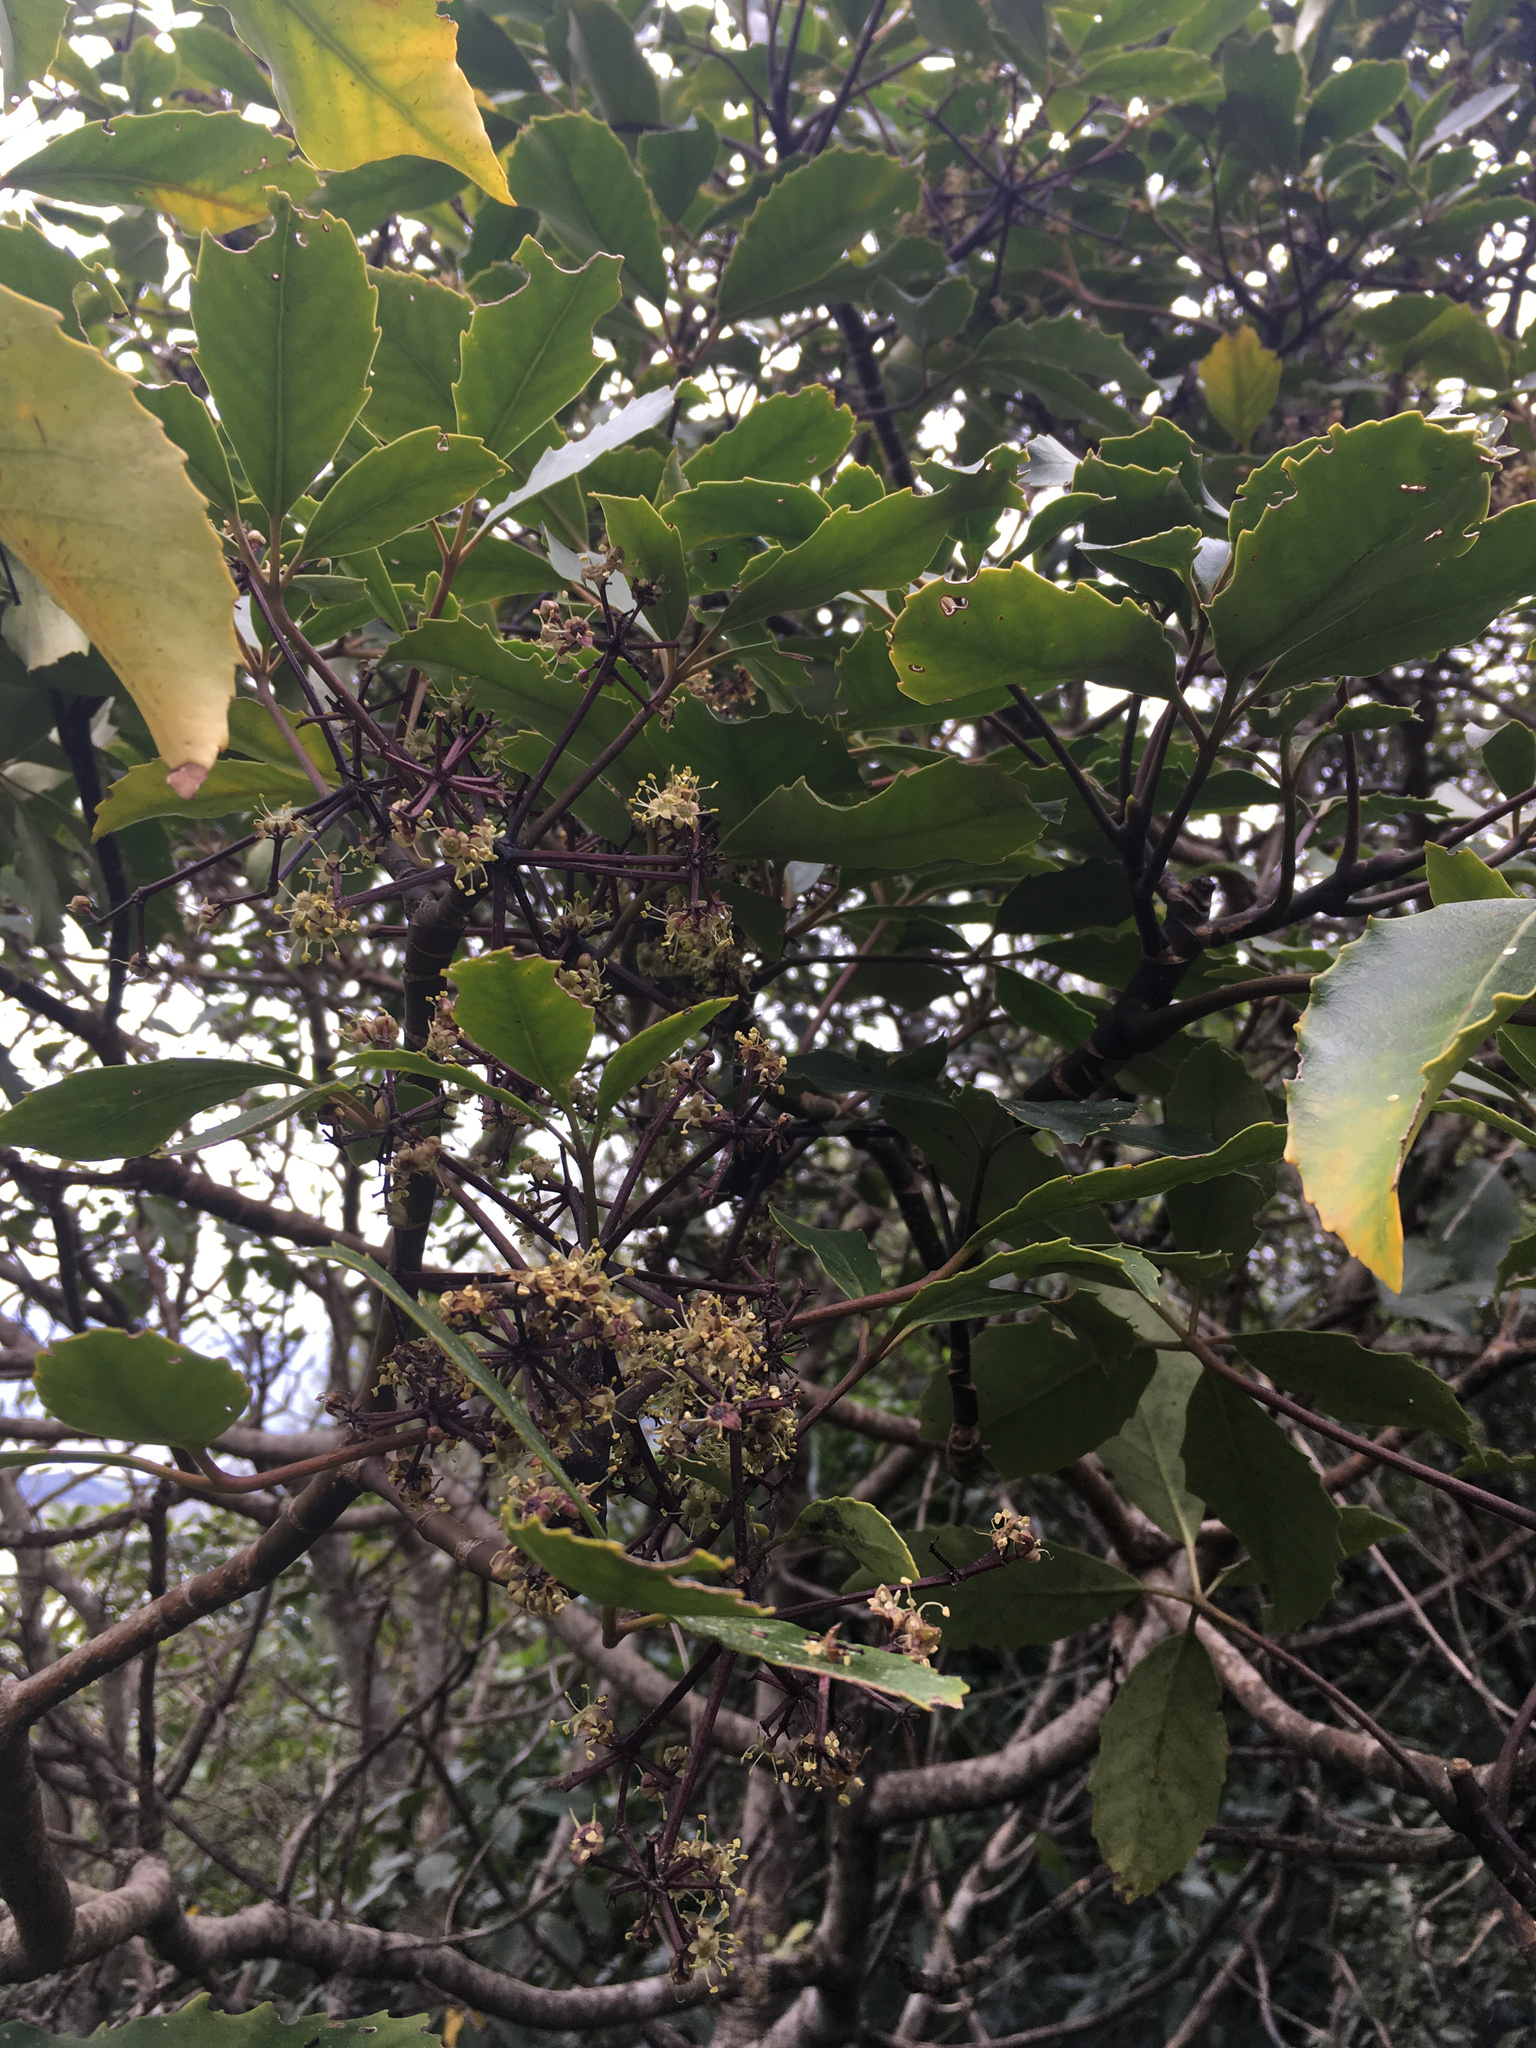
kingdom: Plantae
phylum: Tracheophyta
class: Magnoliopsida
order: Apiales
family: Araliaceae
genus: Neopanax
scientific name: Neopanax arboreus
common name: Five-fingers
